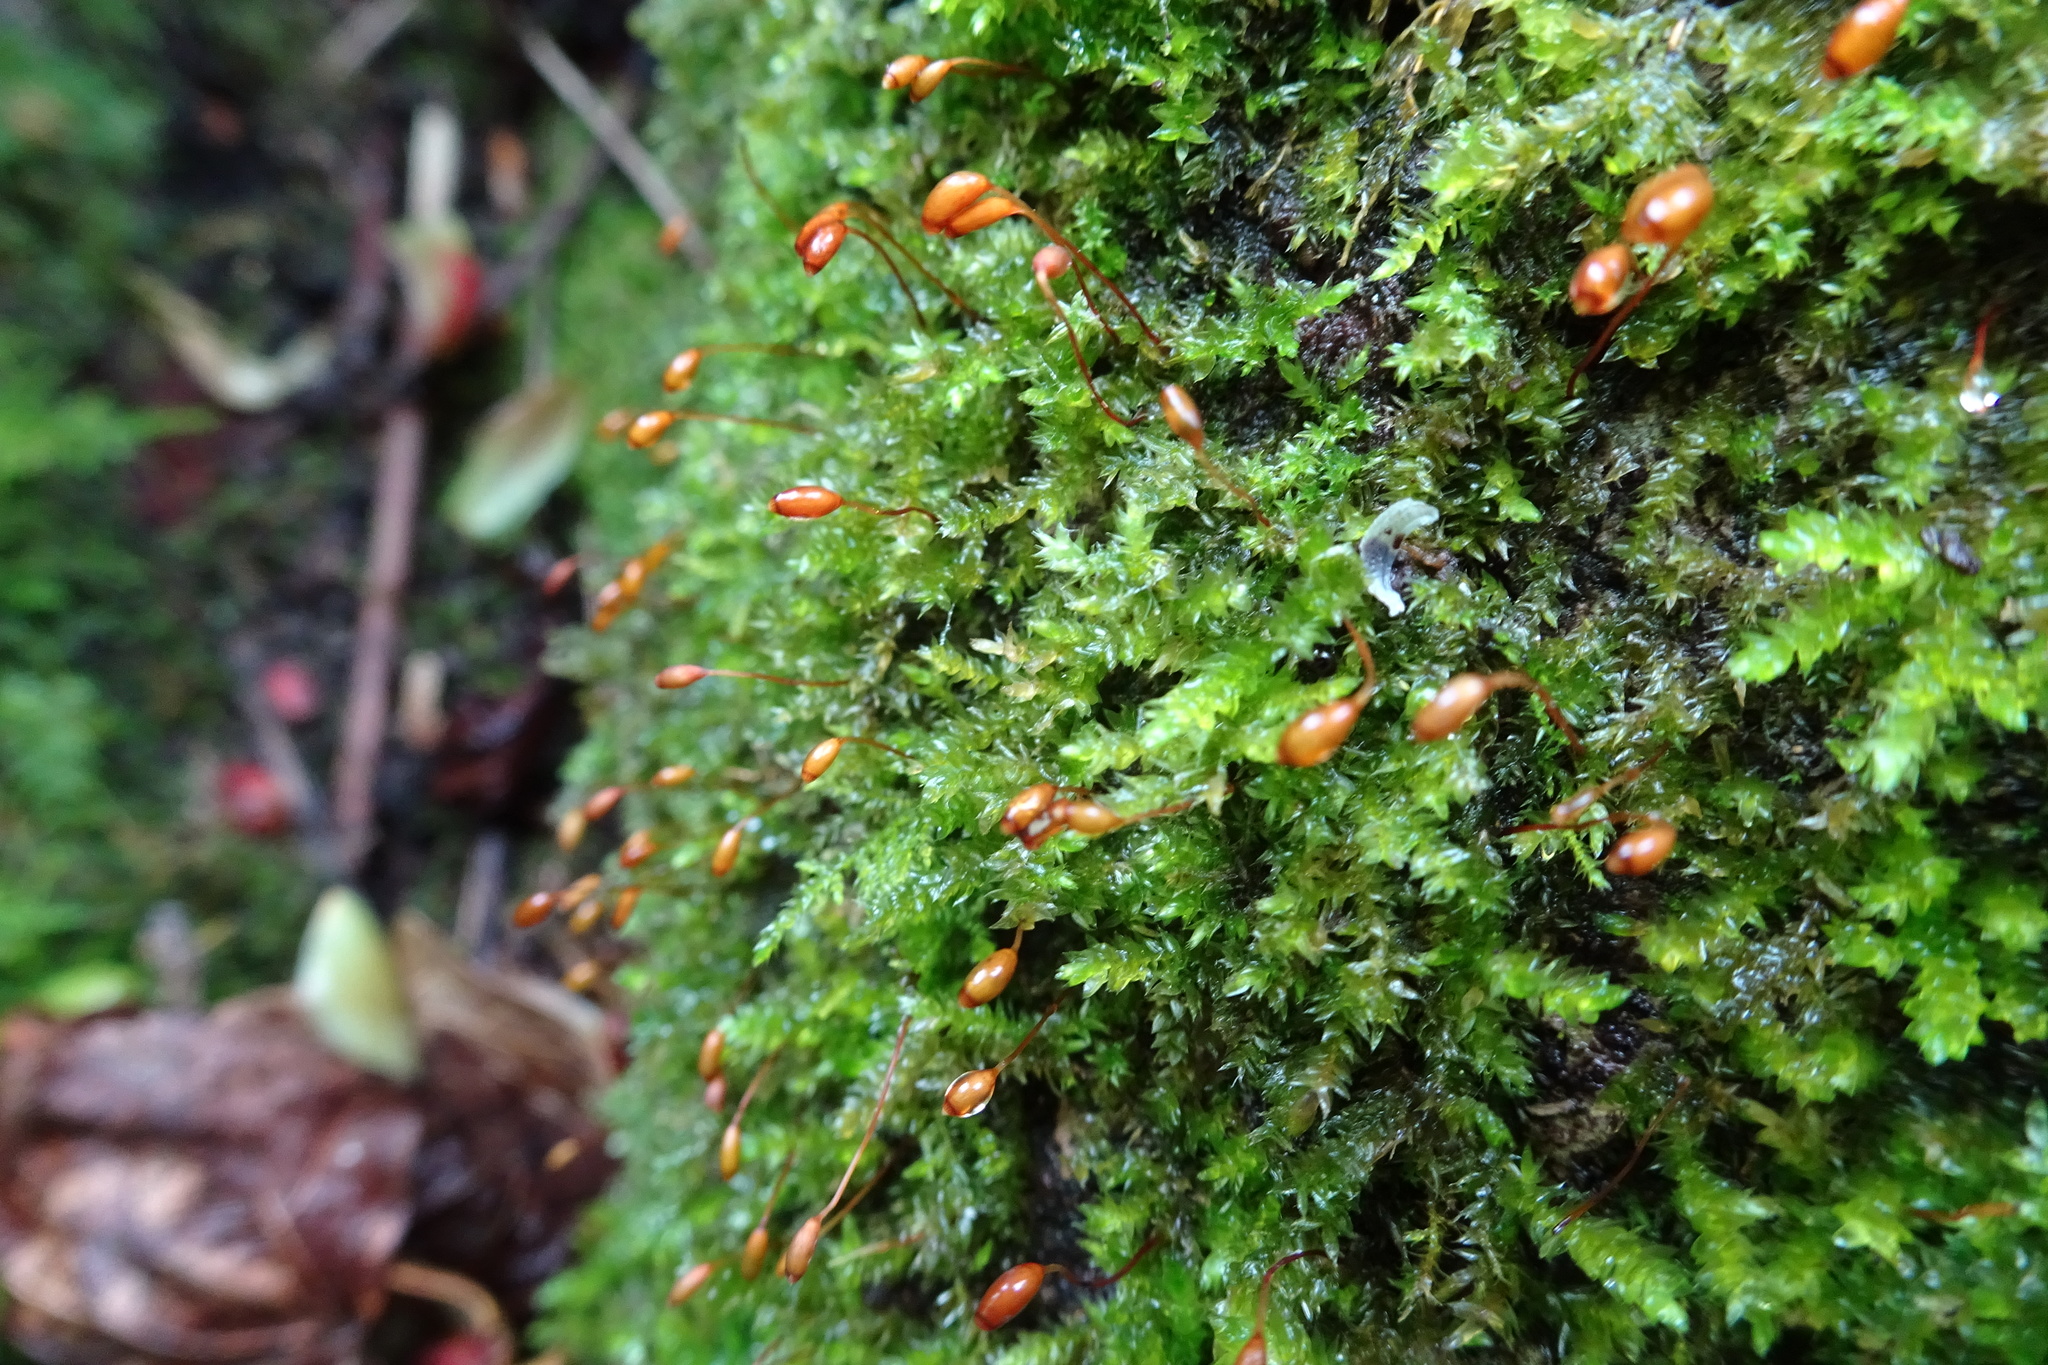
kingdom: Plantae
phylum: Bryophyta
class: Bryopsida
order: Hypnales
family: Brachytheciaceae
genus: Rhynchostegium
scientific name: Rhynchostegium confertum
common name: Clustered feather-moss
